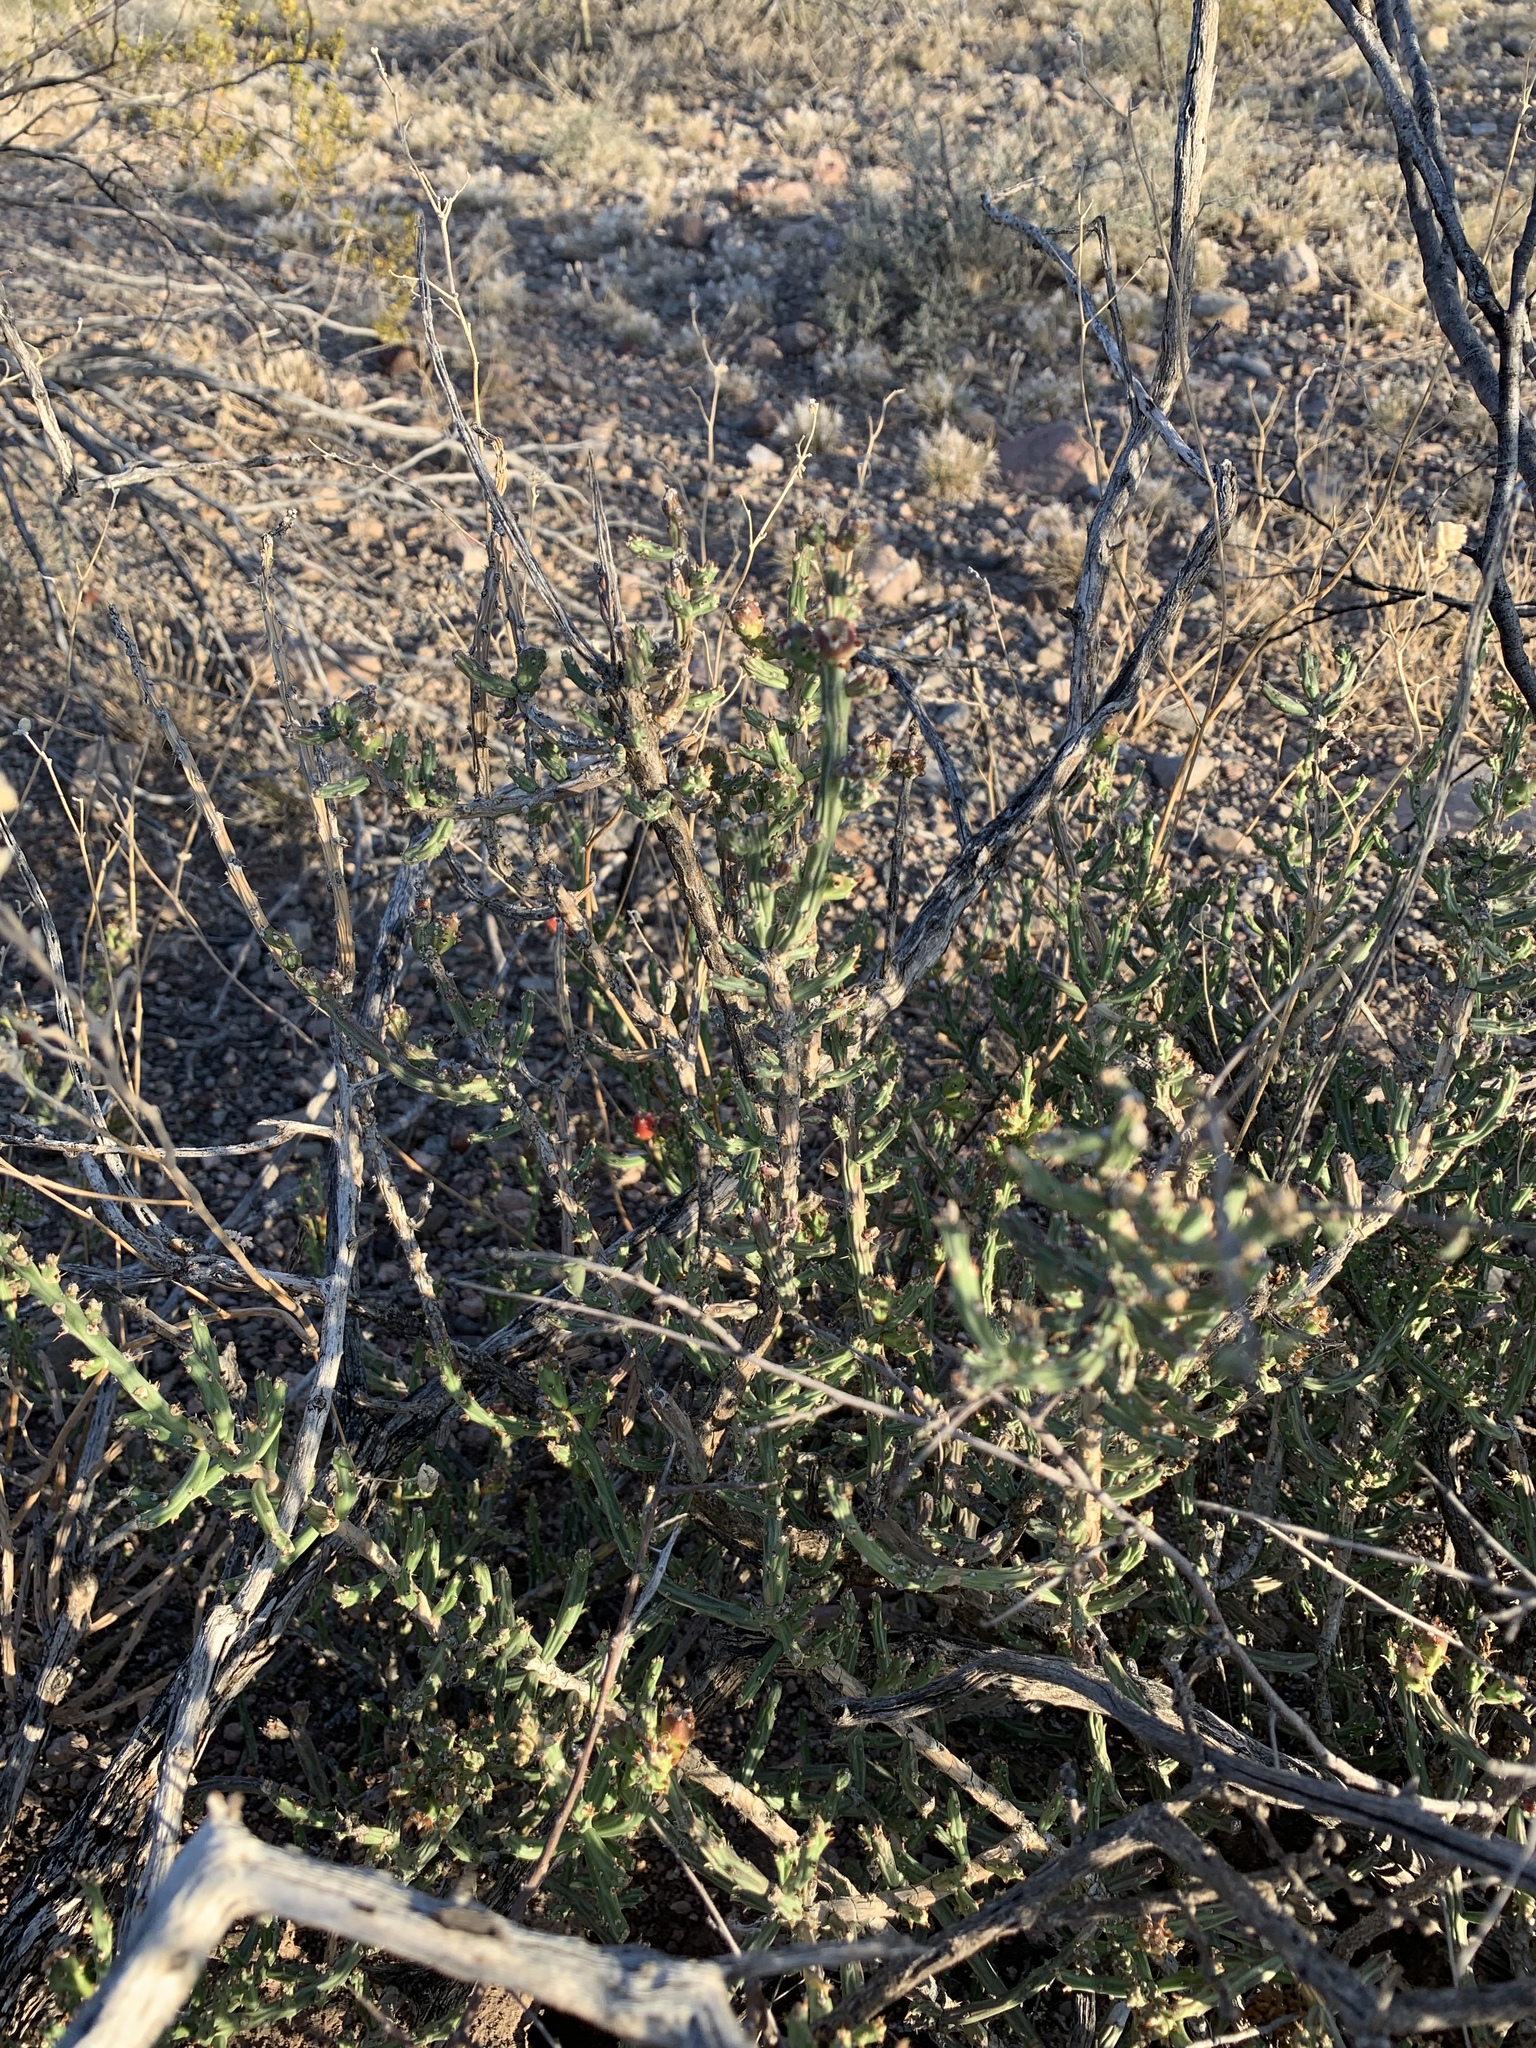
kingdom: Plantae
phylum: Tracheophyta
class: Magnoliopsida
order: Caryophyllales
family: Cactaceae
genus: Cylindropuntia
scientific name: Cylindropuntia leptocaulis
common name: Christmas cactus
